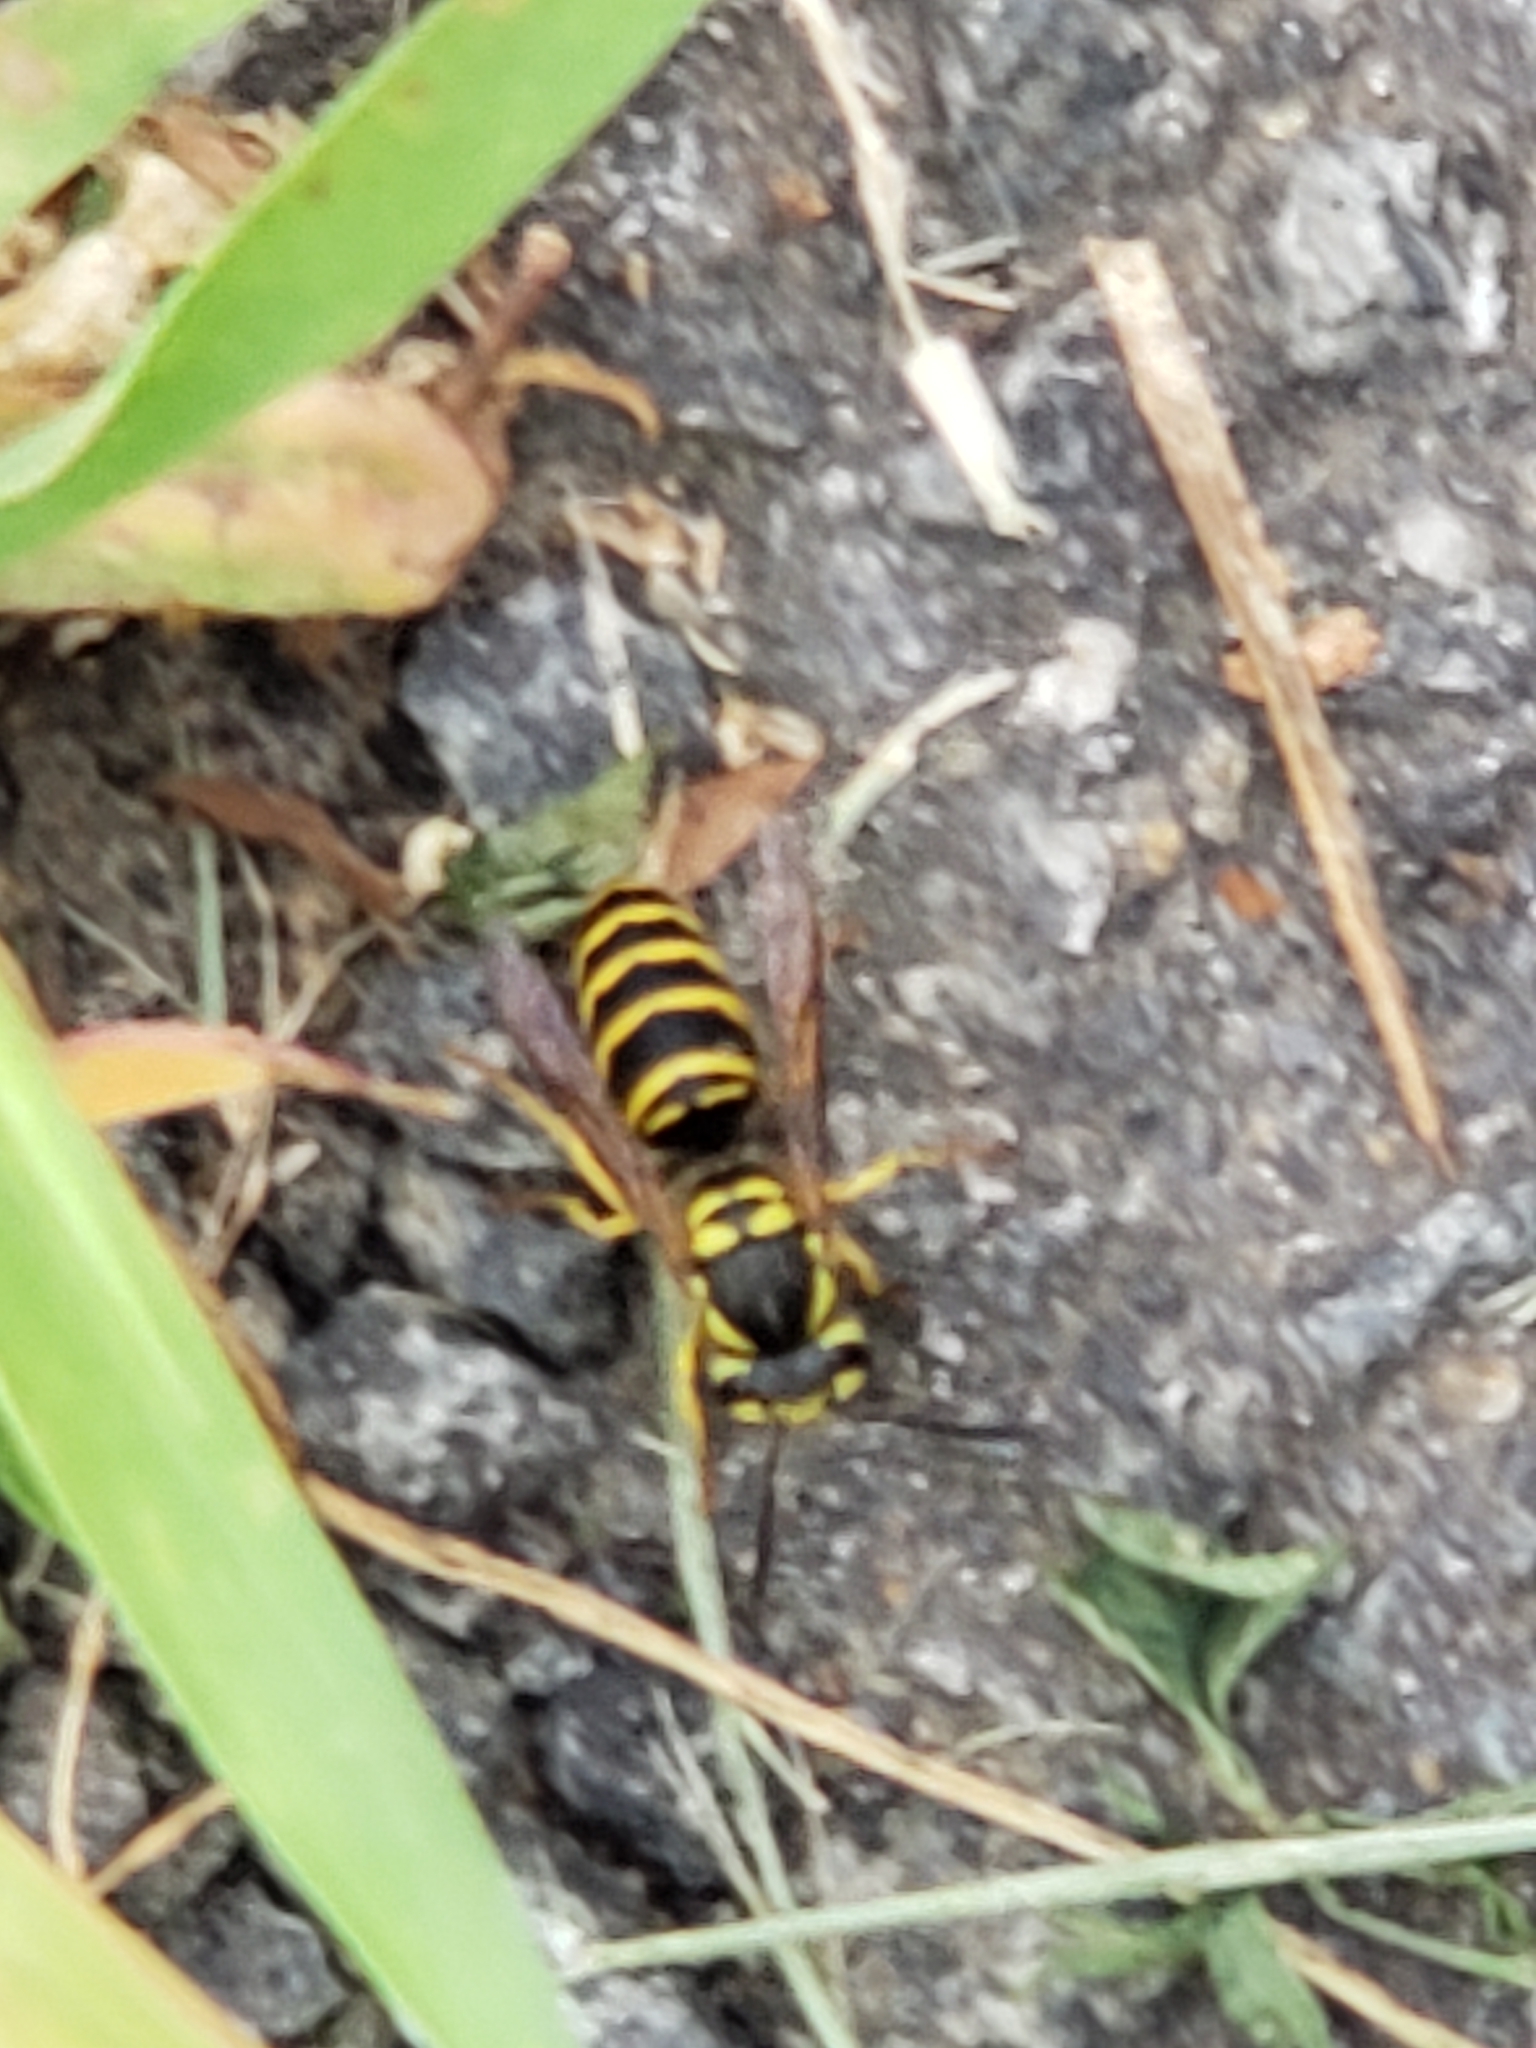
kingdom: Animalia
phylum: Arthropoda
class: Insecta
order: Hymenoptera
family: Vespidae
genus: Vespula
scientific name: Vespula maculifrons
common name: Eastern yellowjacket
